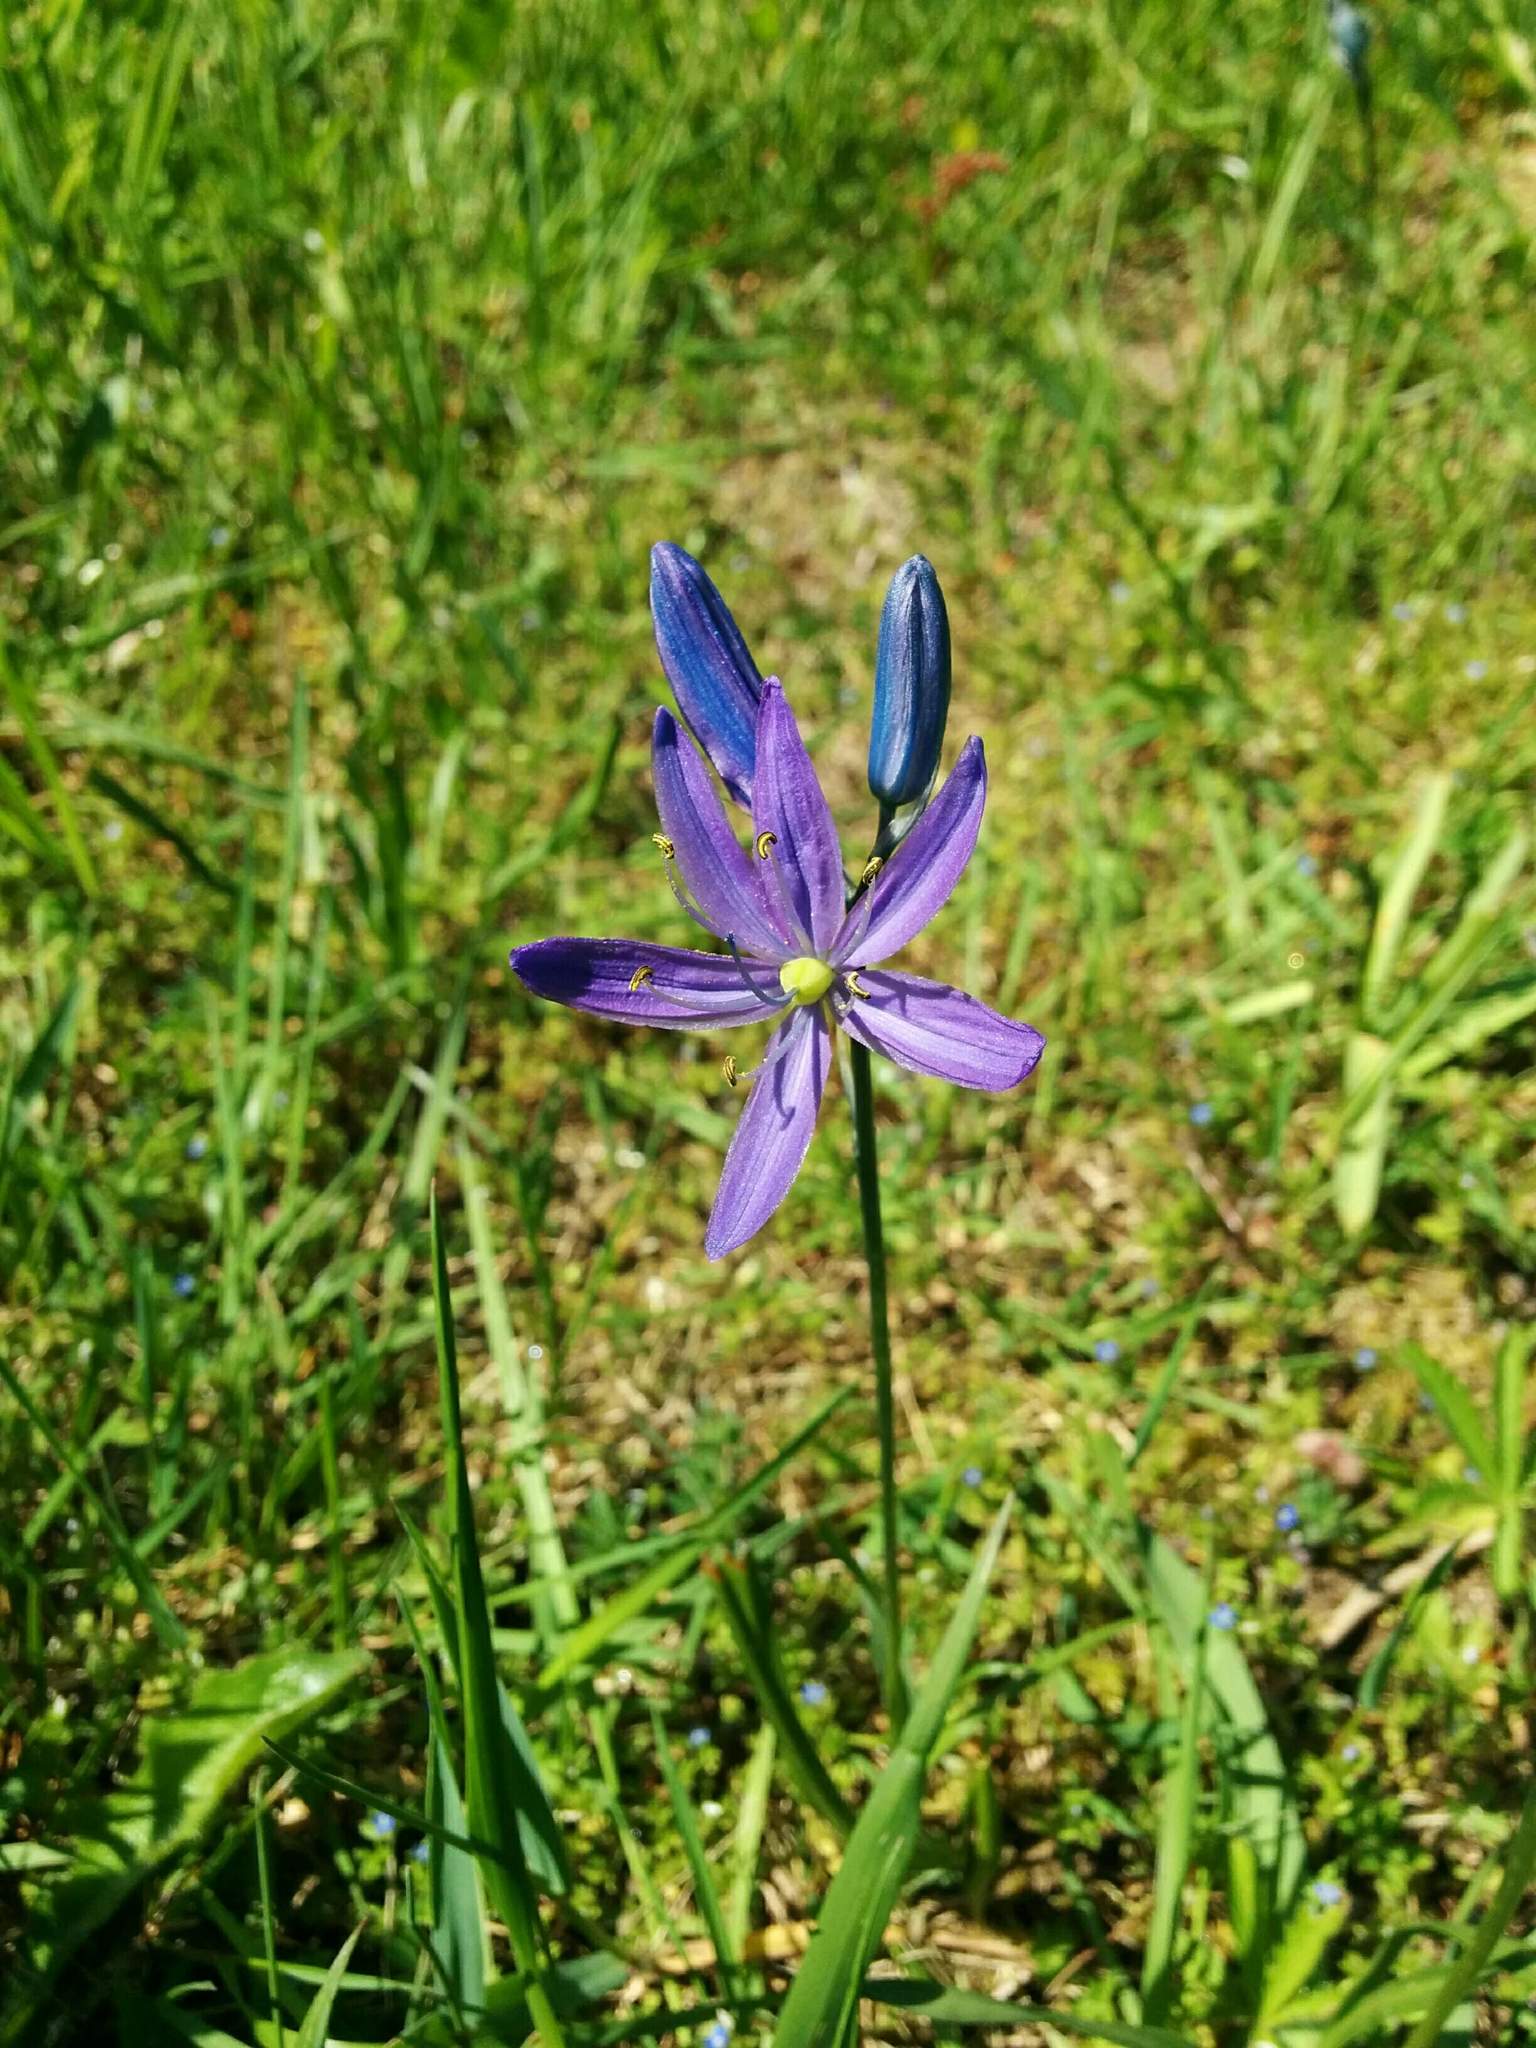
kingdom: Plantae
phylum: Tracheophyta
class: Liliopsida
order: Asparagales
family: Asparagaceae
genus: Camassia
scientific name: Camassia quamash
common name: Common camas
